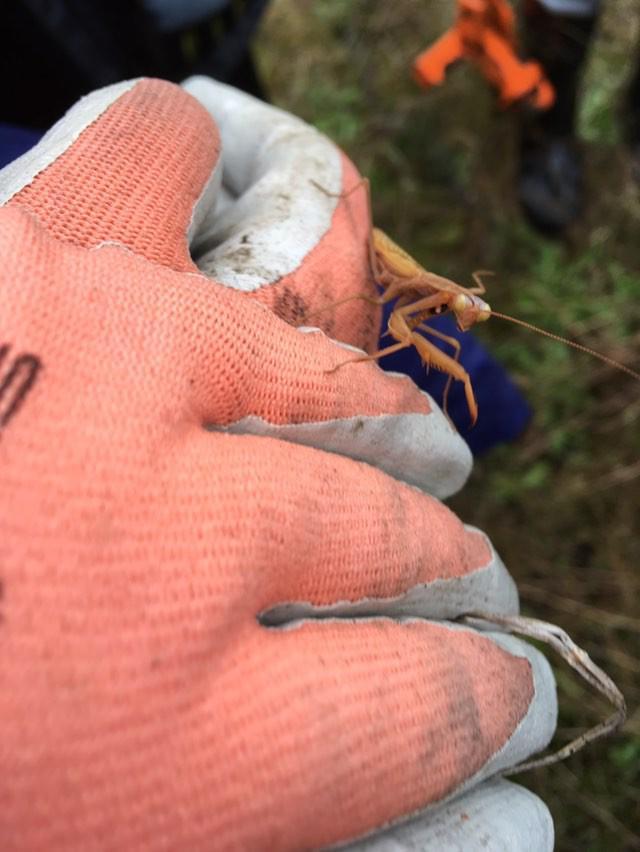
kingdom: Animalia
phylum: Arthropoda
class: Insecta
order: Mantodea
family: Mantidae
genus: Mantis
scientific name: Mantis religiosa
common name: Praying mantis
